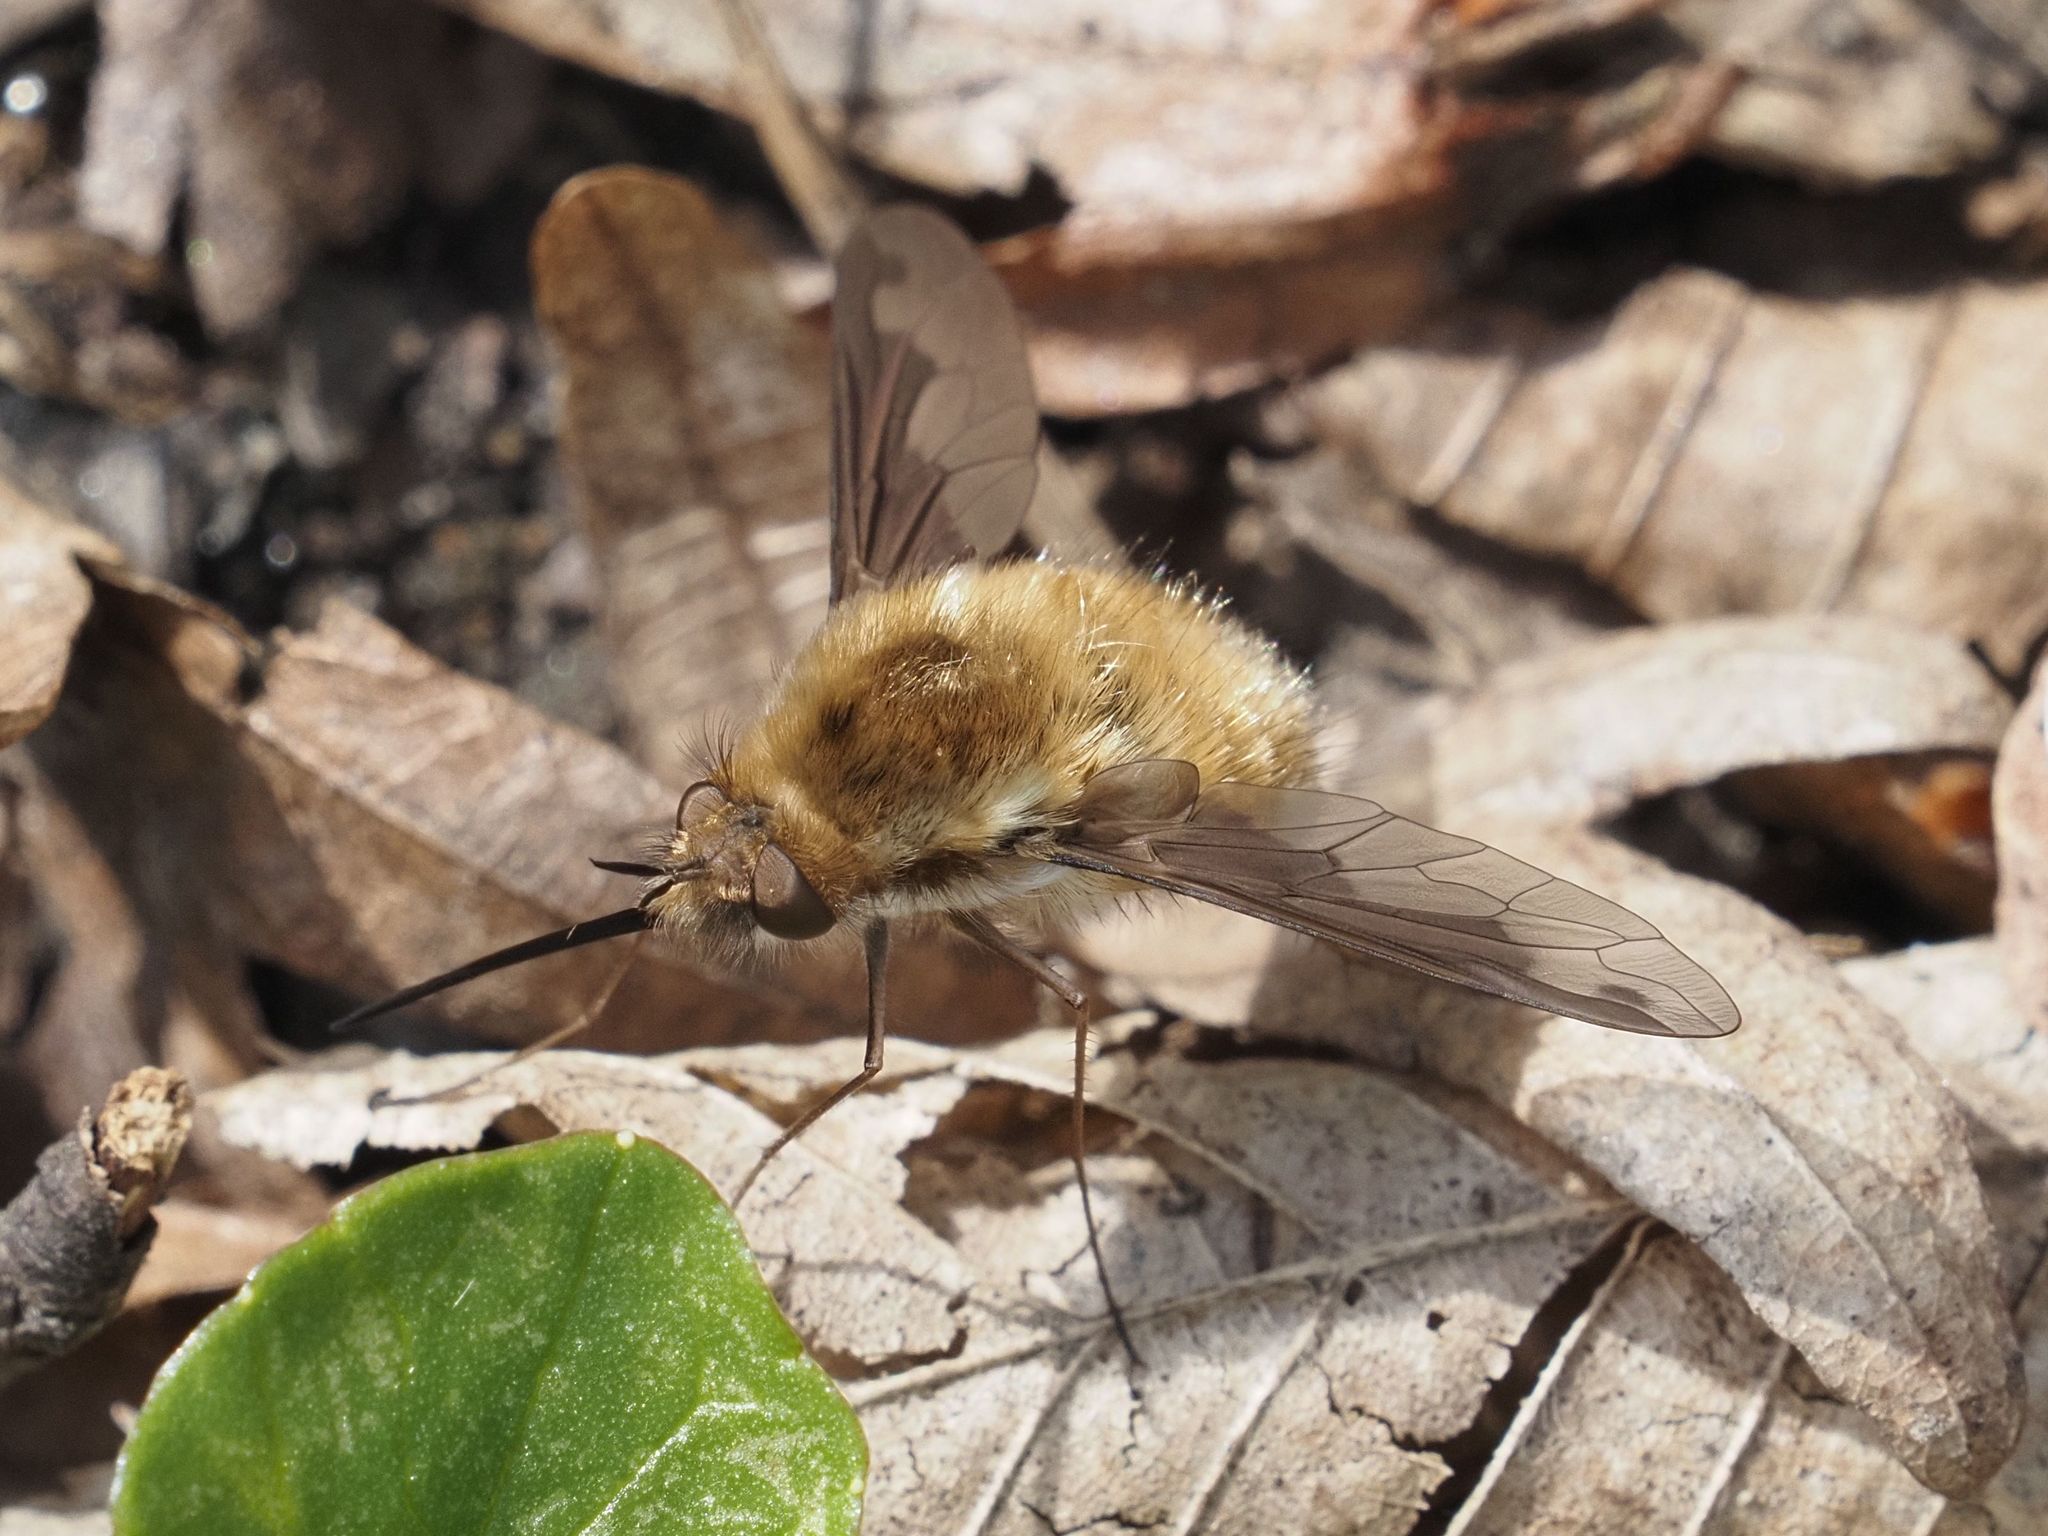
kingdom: Animalia
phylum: Arthropoda
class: Insecta
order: Diptera
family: Bombyliidae
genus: Bombylius
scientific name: Bombylius major
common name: Bee fly
